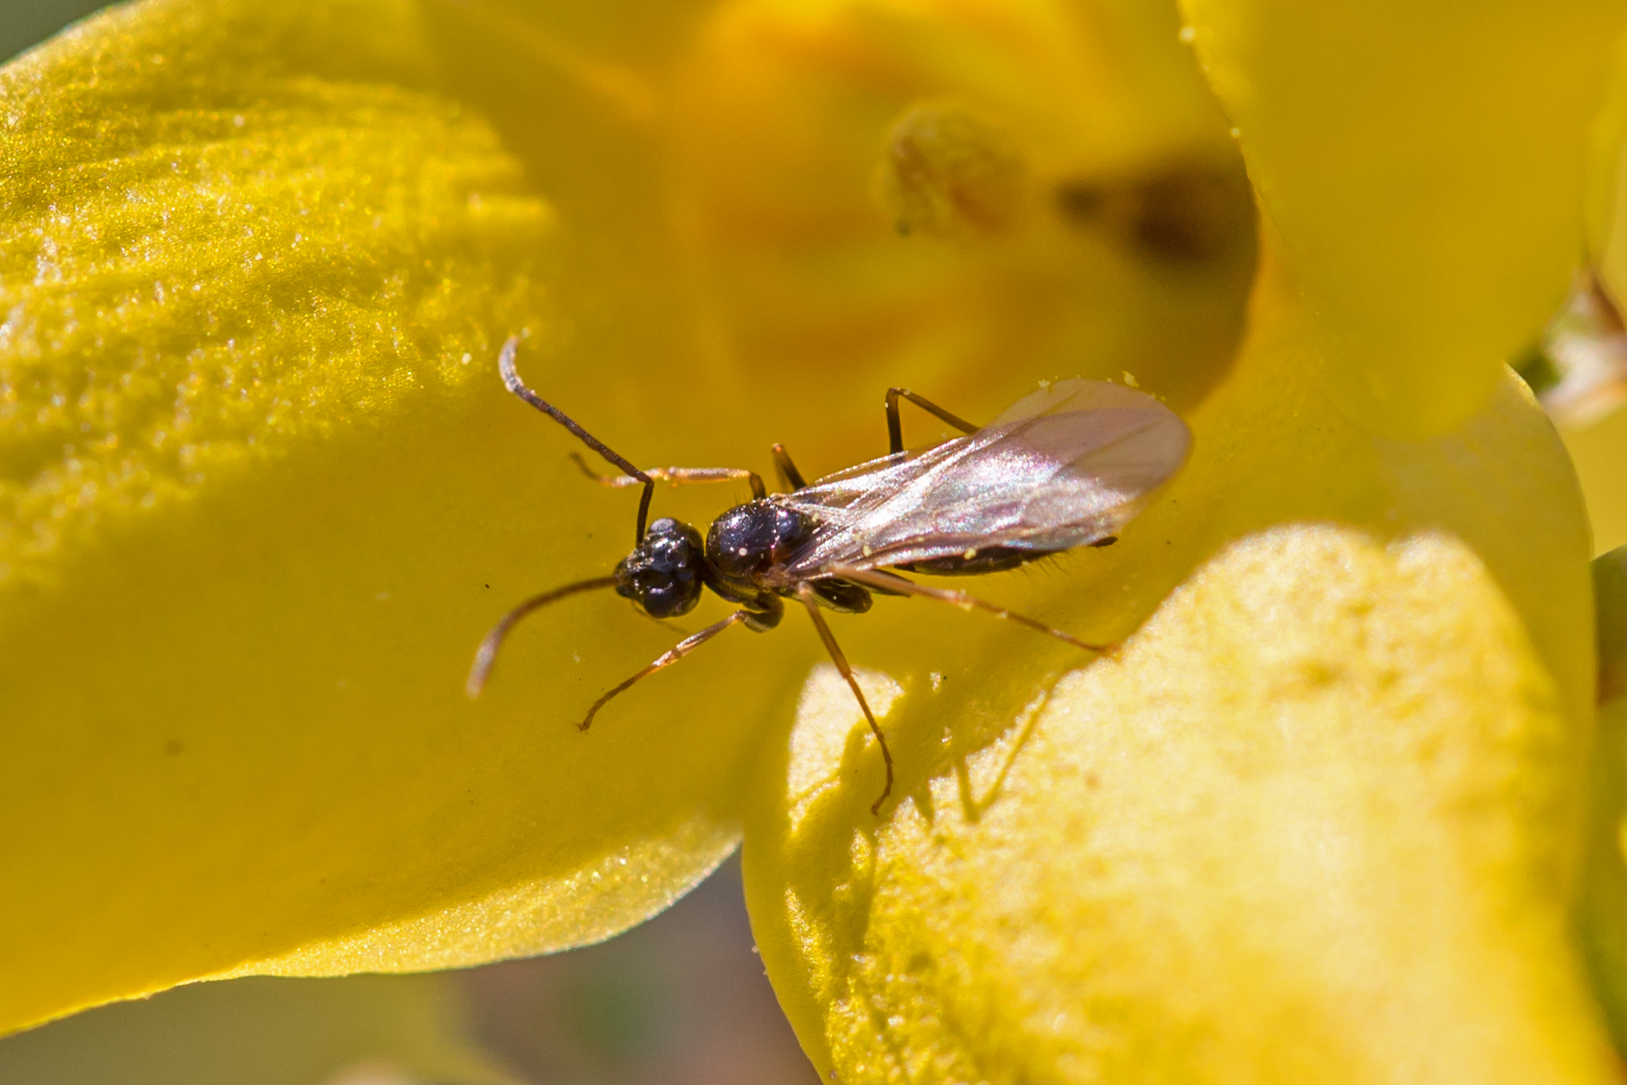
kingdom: Animalia
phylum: Arthropoda
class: Insecta
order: Hymenoptera
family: Formicidae
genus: Prenolepis
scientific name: Prenolepis imparis
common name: Small honey ant
